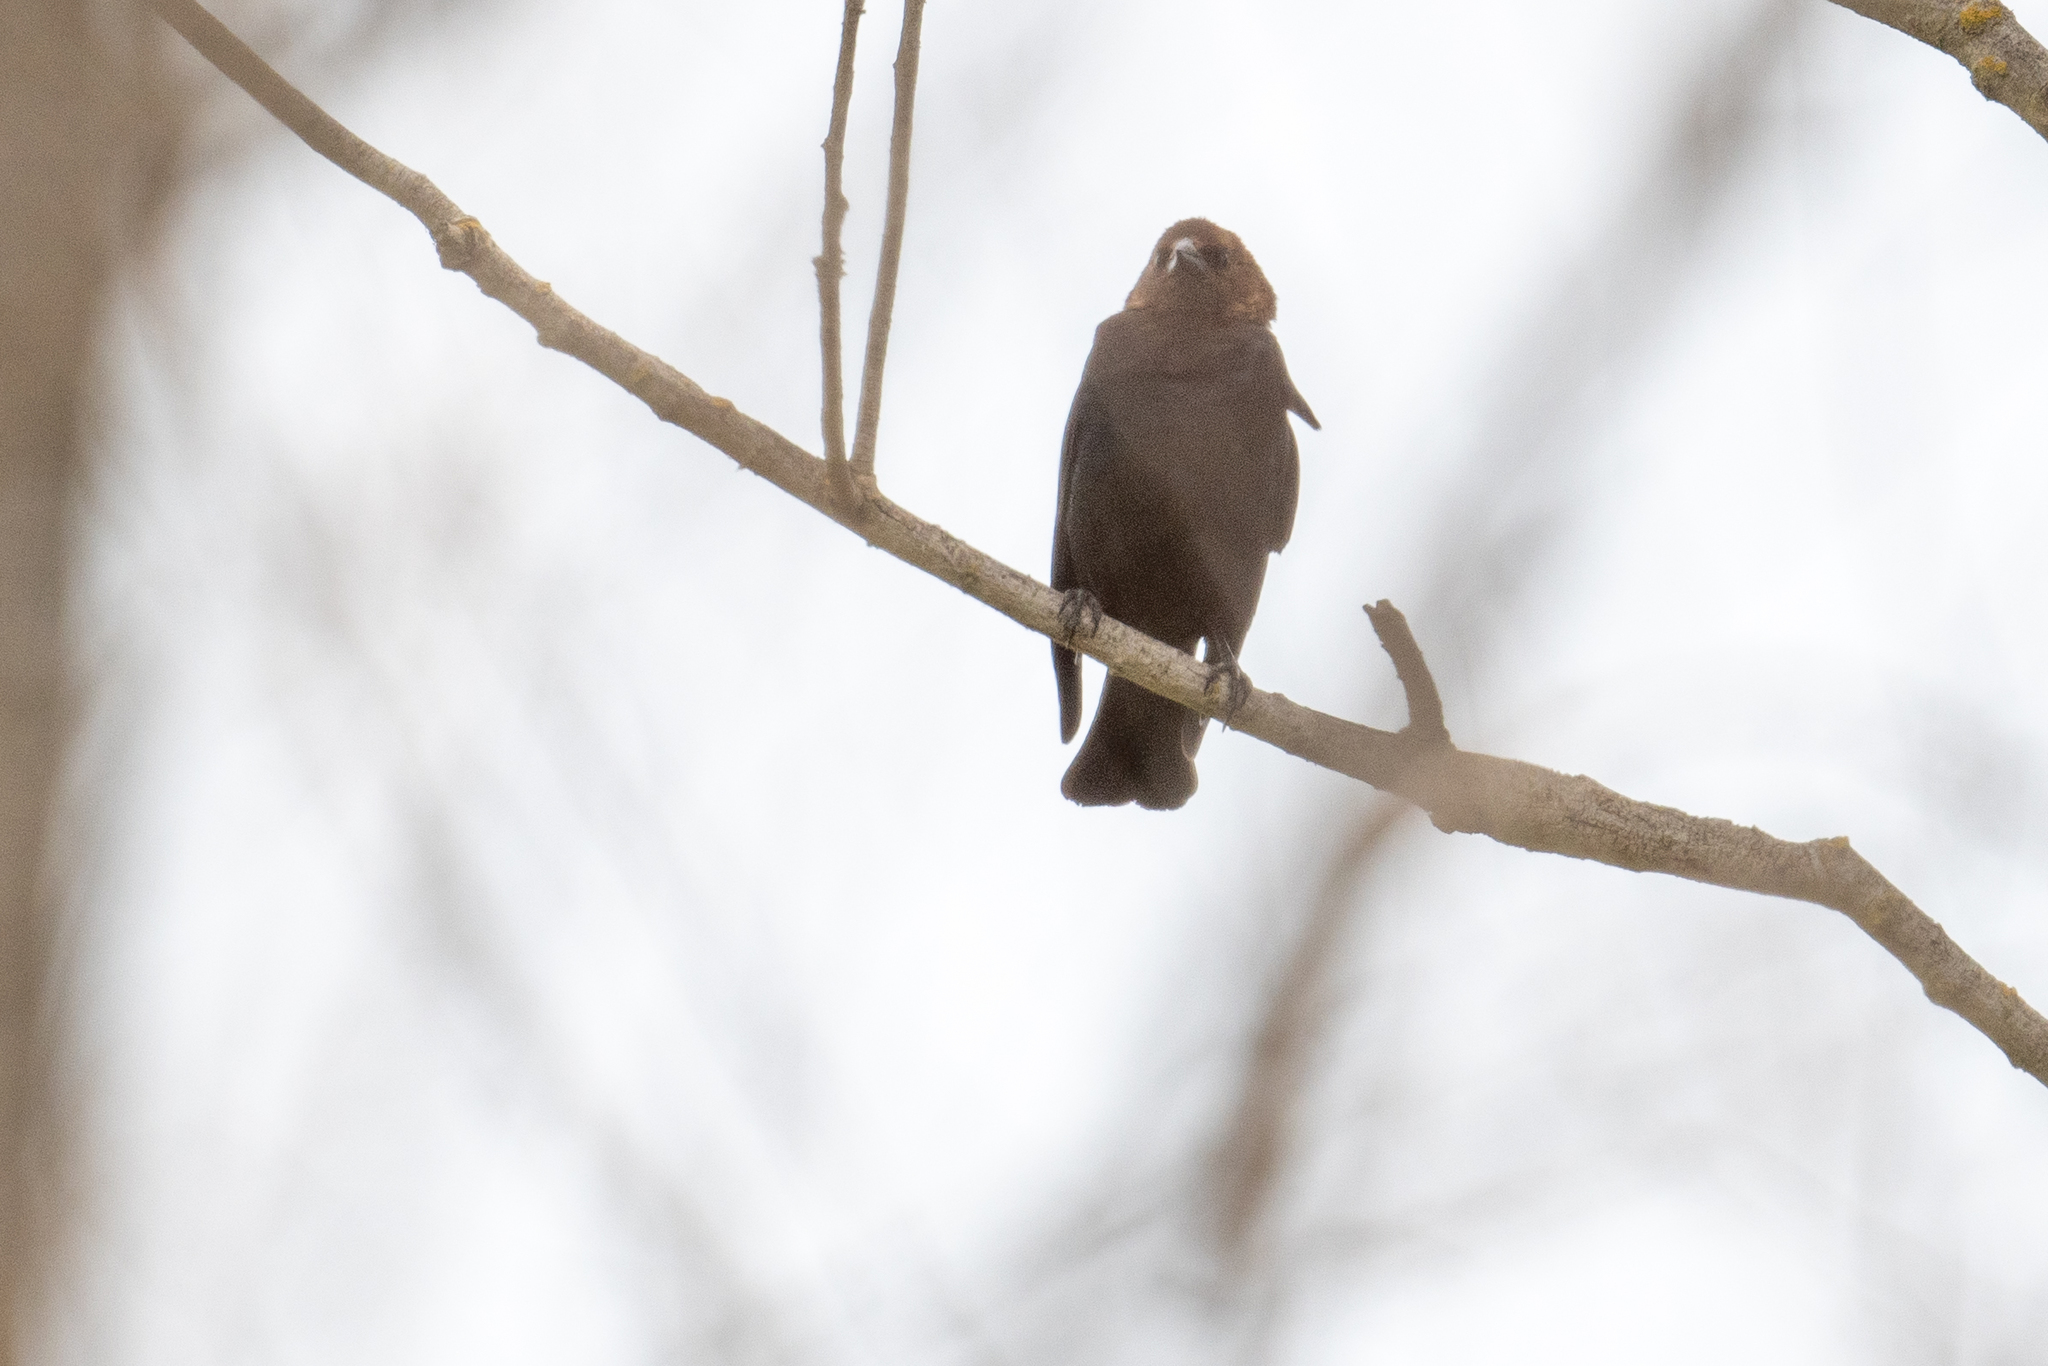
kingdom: Animalia
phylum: Chordata
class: Aves
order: Passeriformes
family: Icteridae
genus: Molothrus
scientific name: Molothrus ater
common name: Brown-headed cowbird
